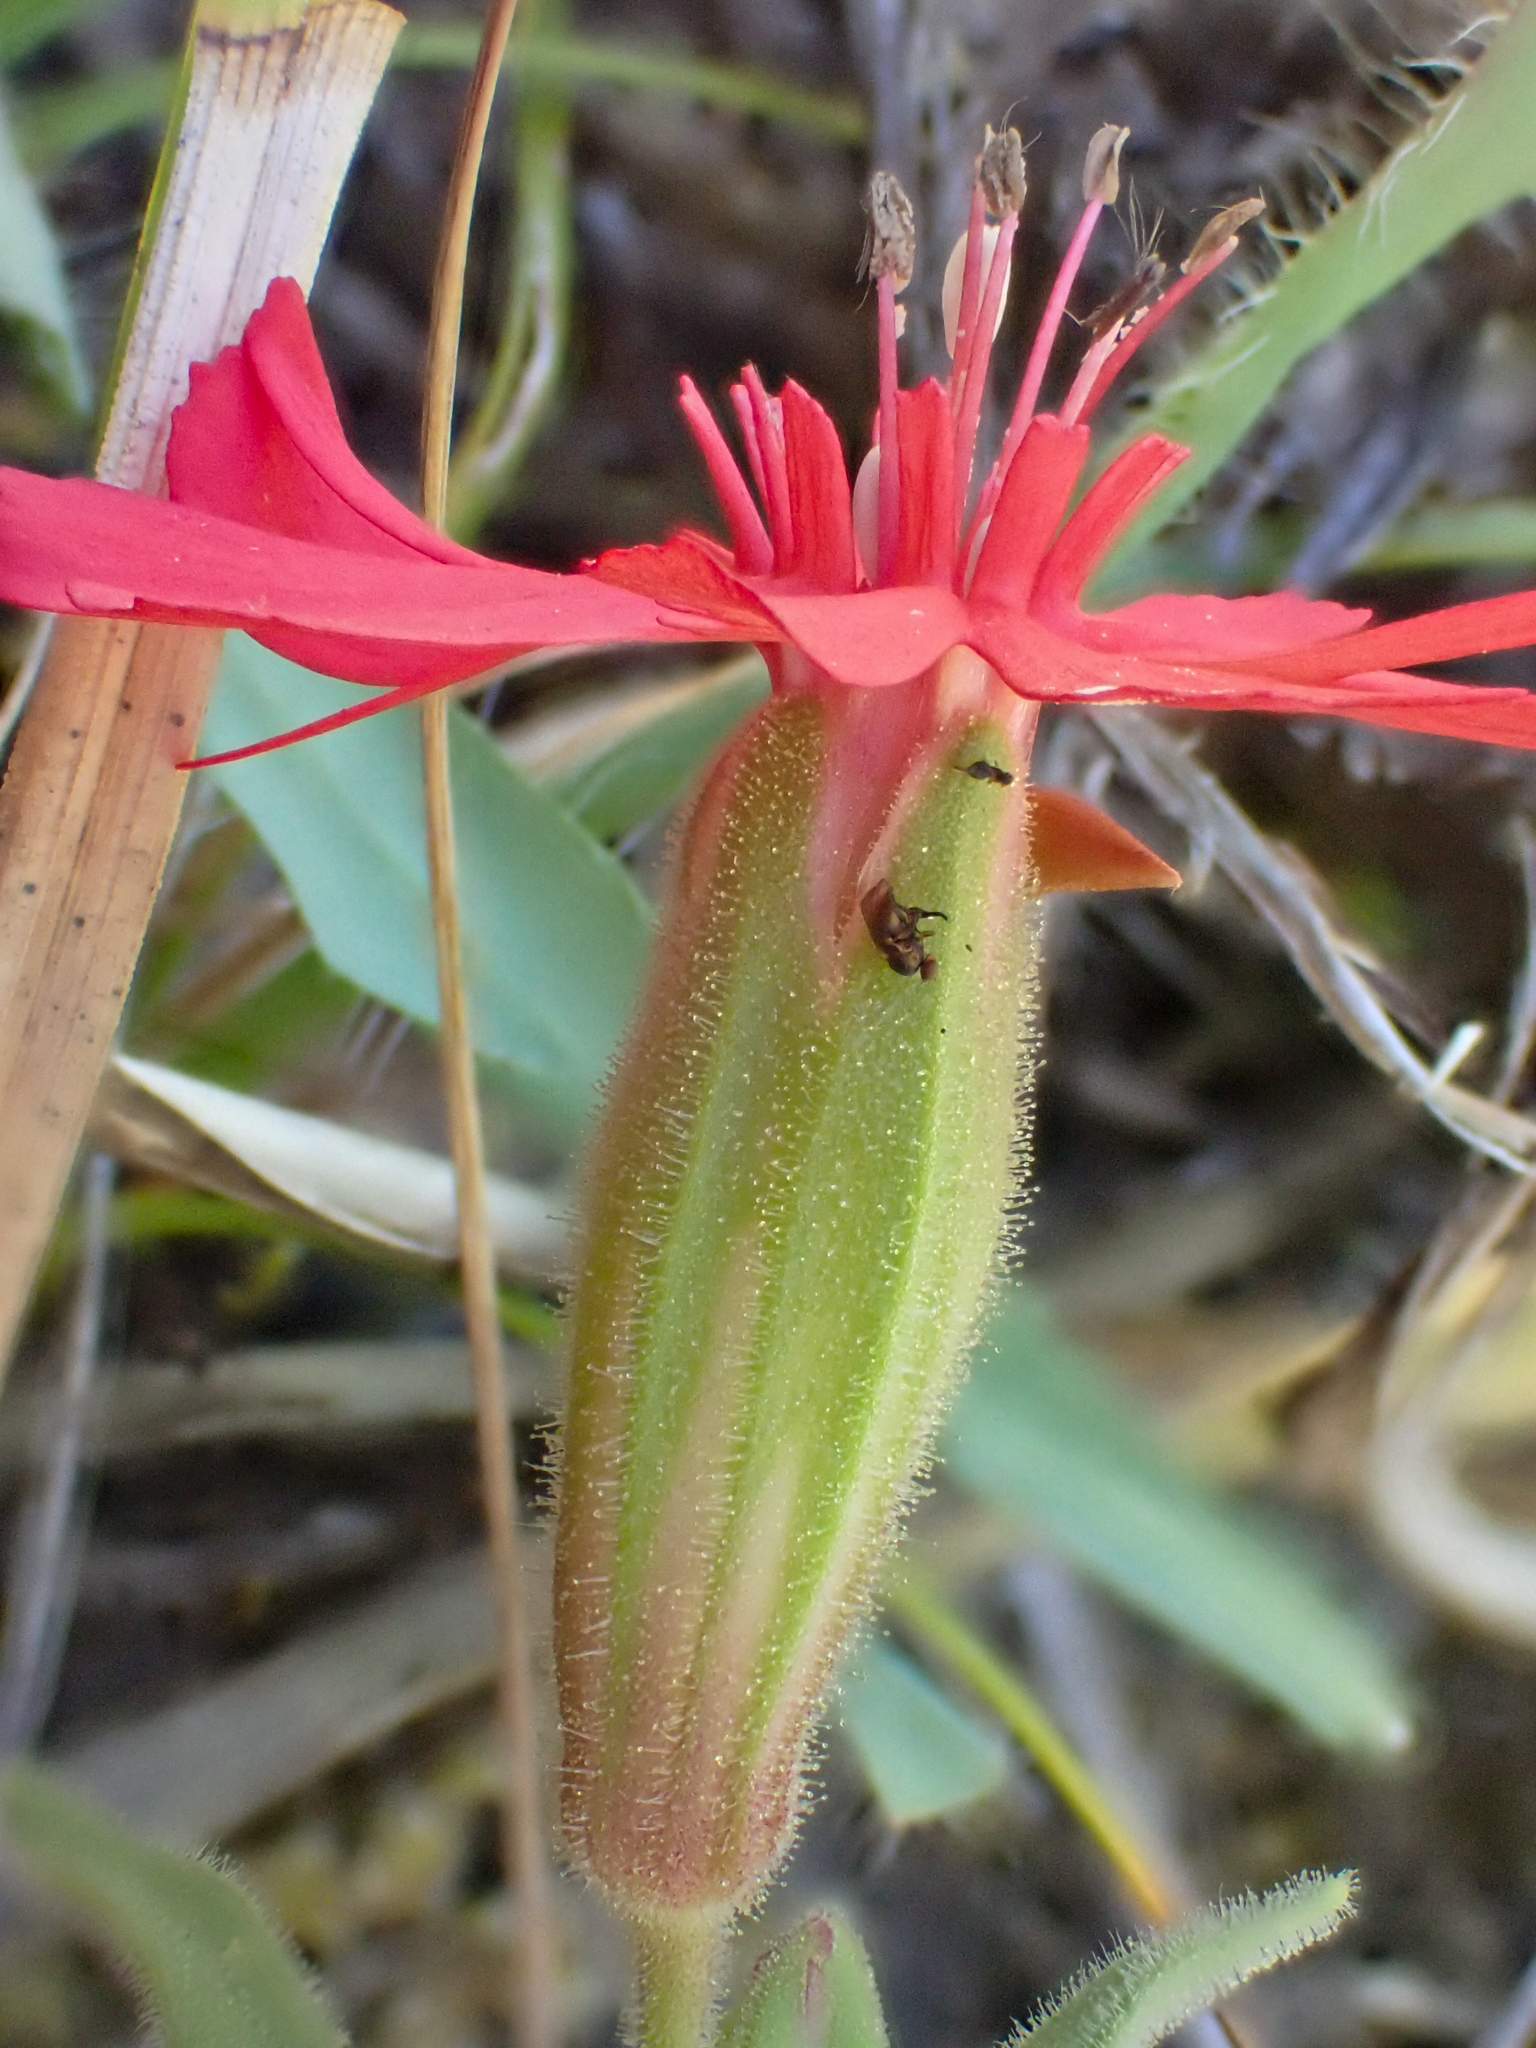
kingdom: Plantae
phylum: Tracheophyta
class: Magnoliopsida
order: Caryophyllales
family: Caryophyllaceae
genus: Silene
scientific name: Silene hookeri
